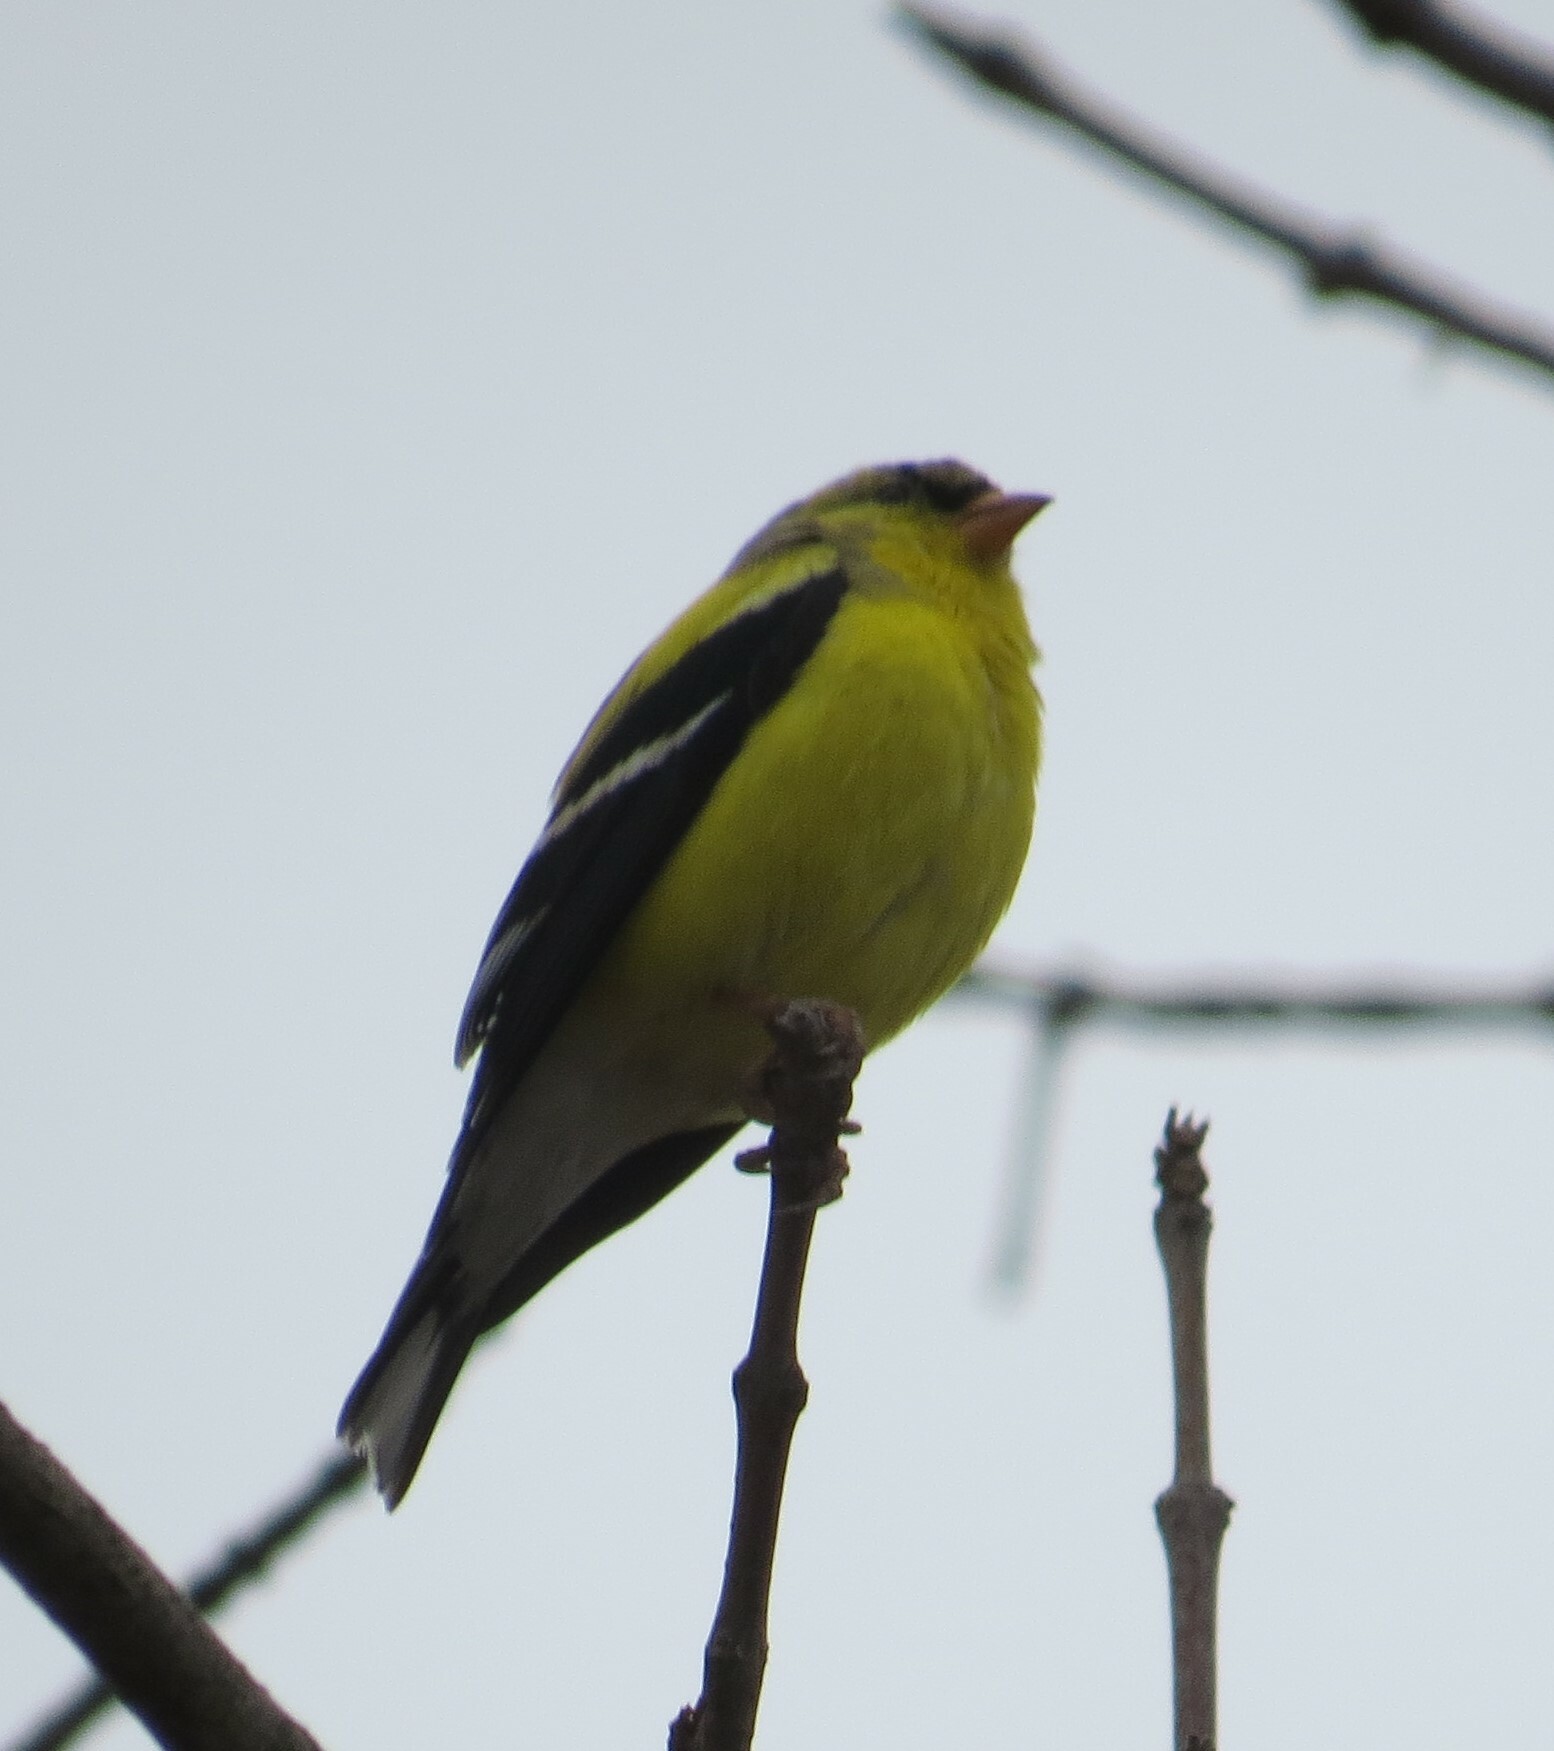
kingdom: Animalia
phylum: Chordata
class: Aves
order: Passeriformes
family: Fringillidae
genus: Spinus
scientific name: Spinus tristis
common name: American goldfinch
